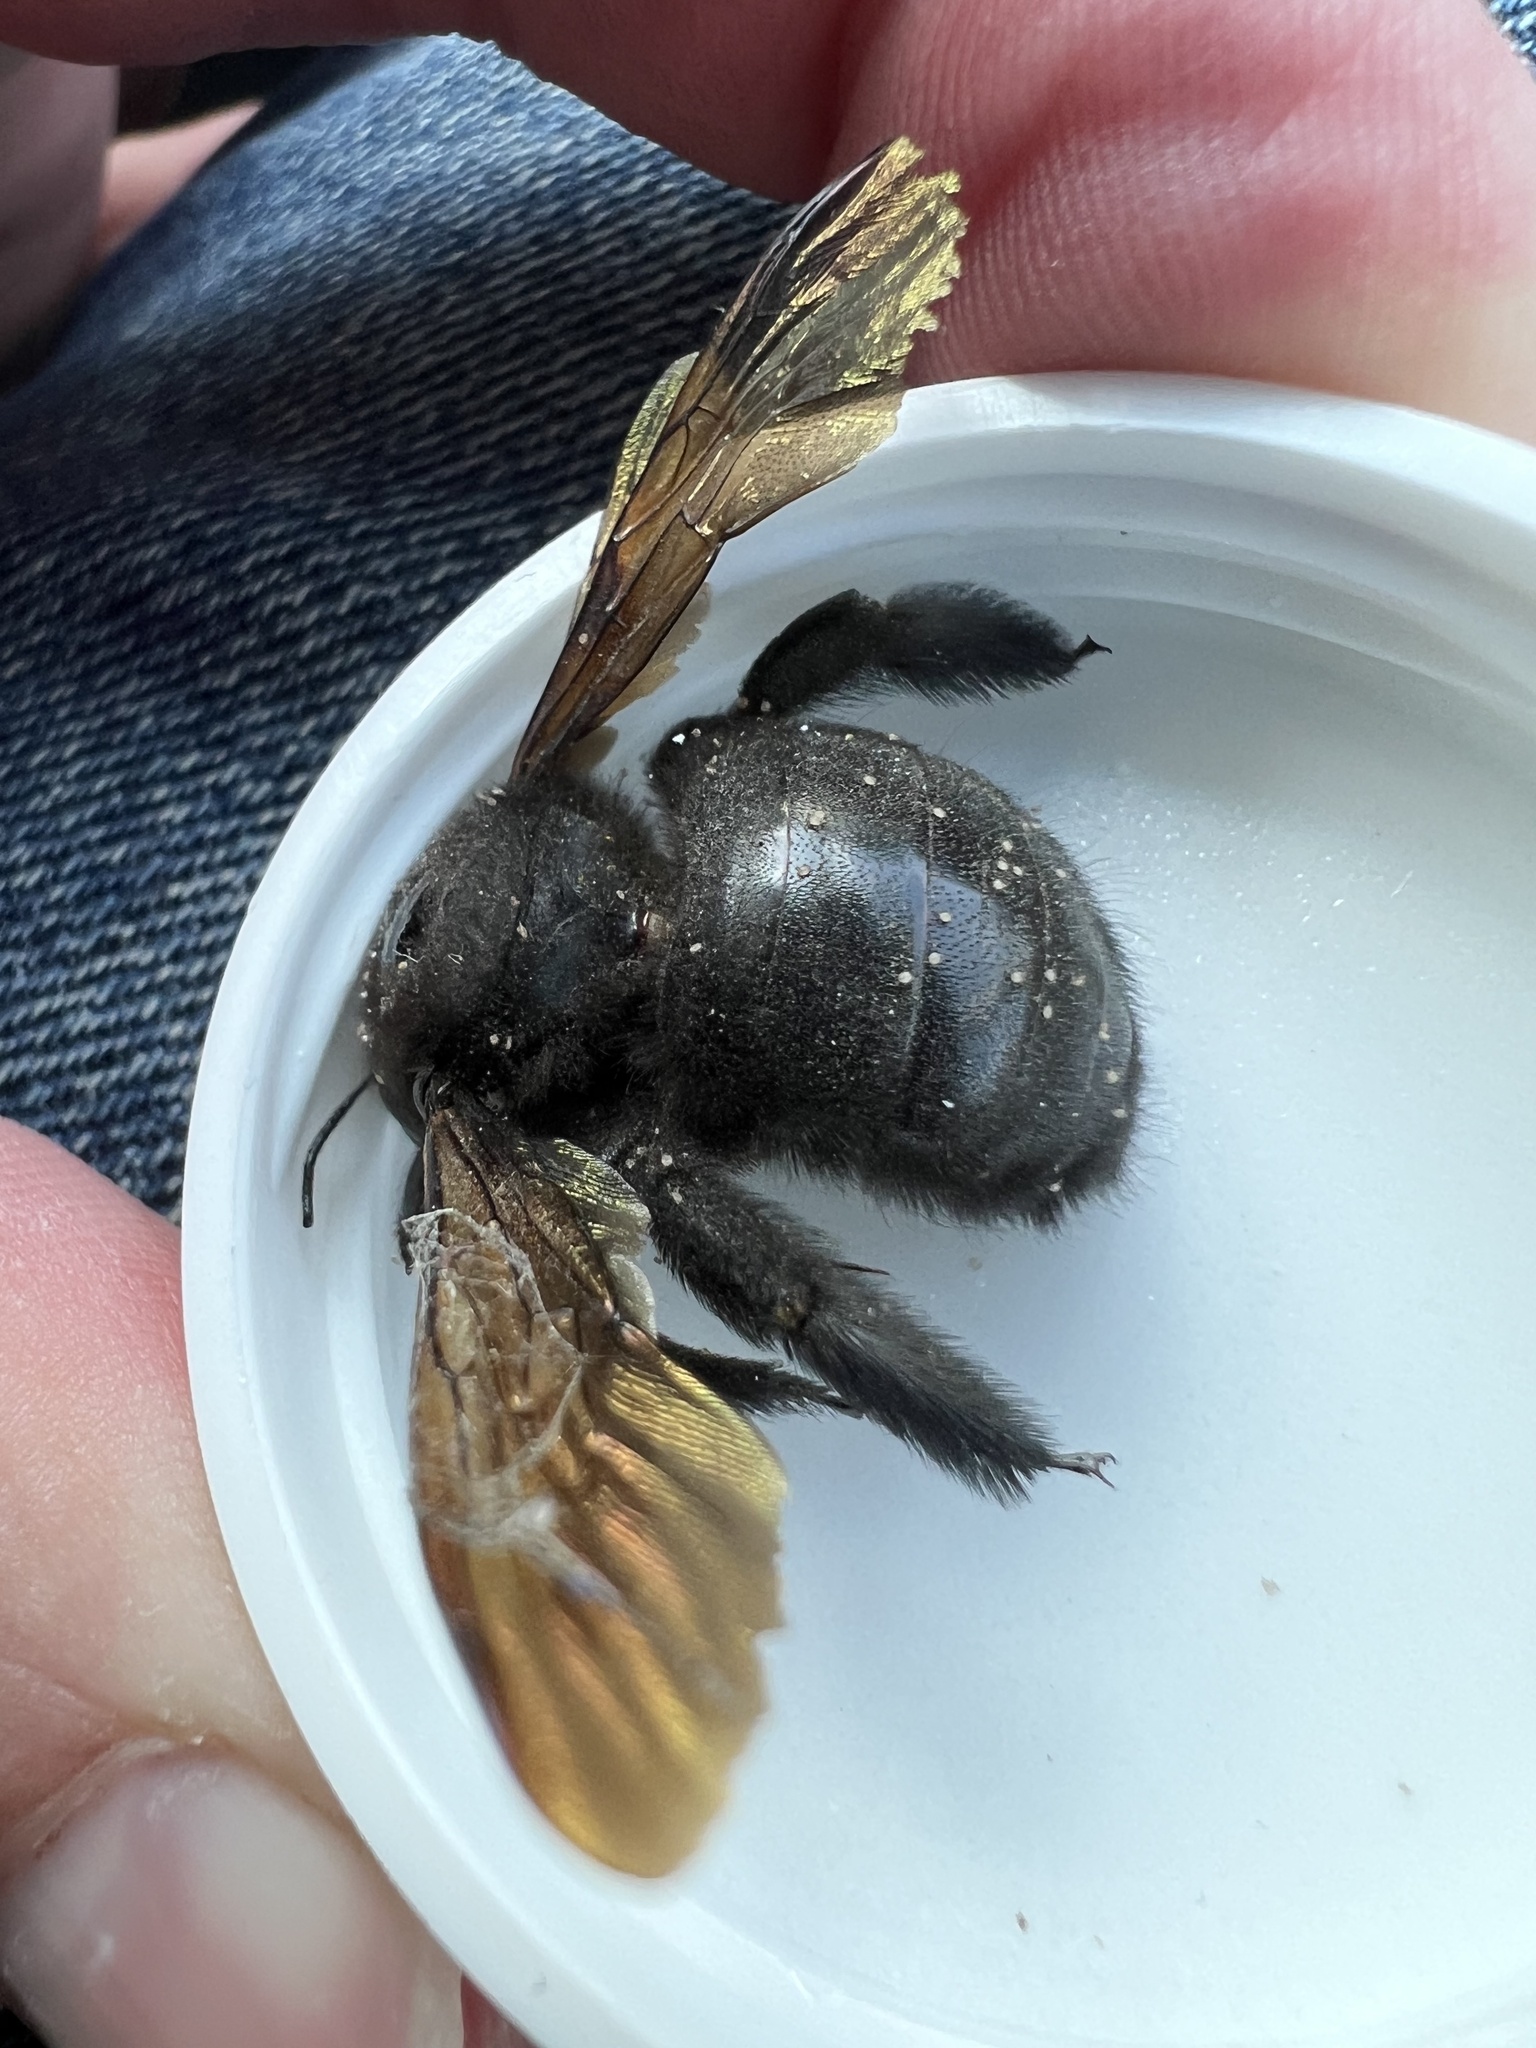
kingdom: Animalia
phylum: Arthropoda
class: Insecta
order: Hymenoptera
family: Apidae
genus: Xylocopa
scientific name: Xylocopa sonorina
